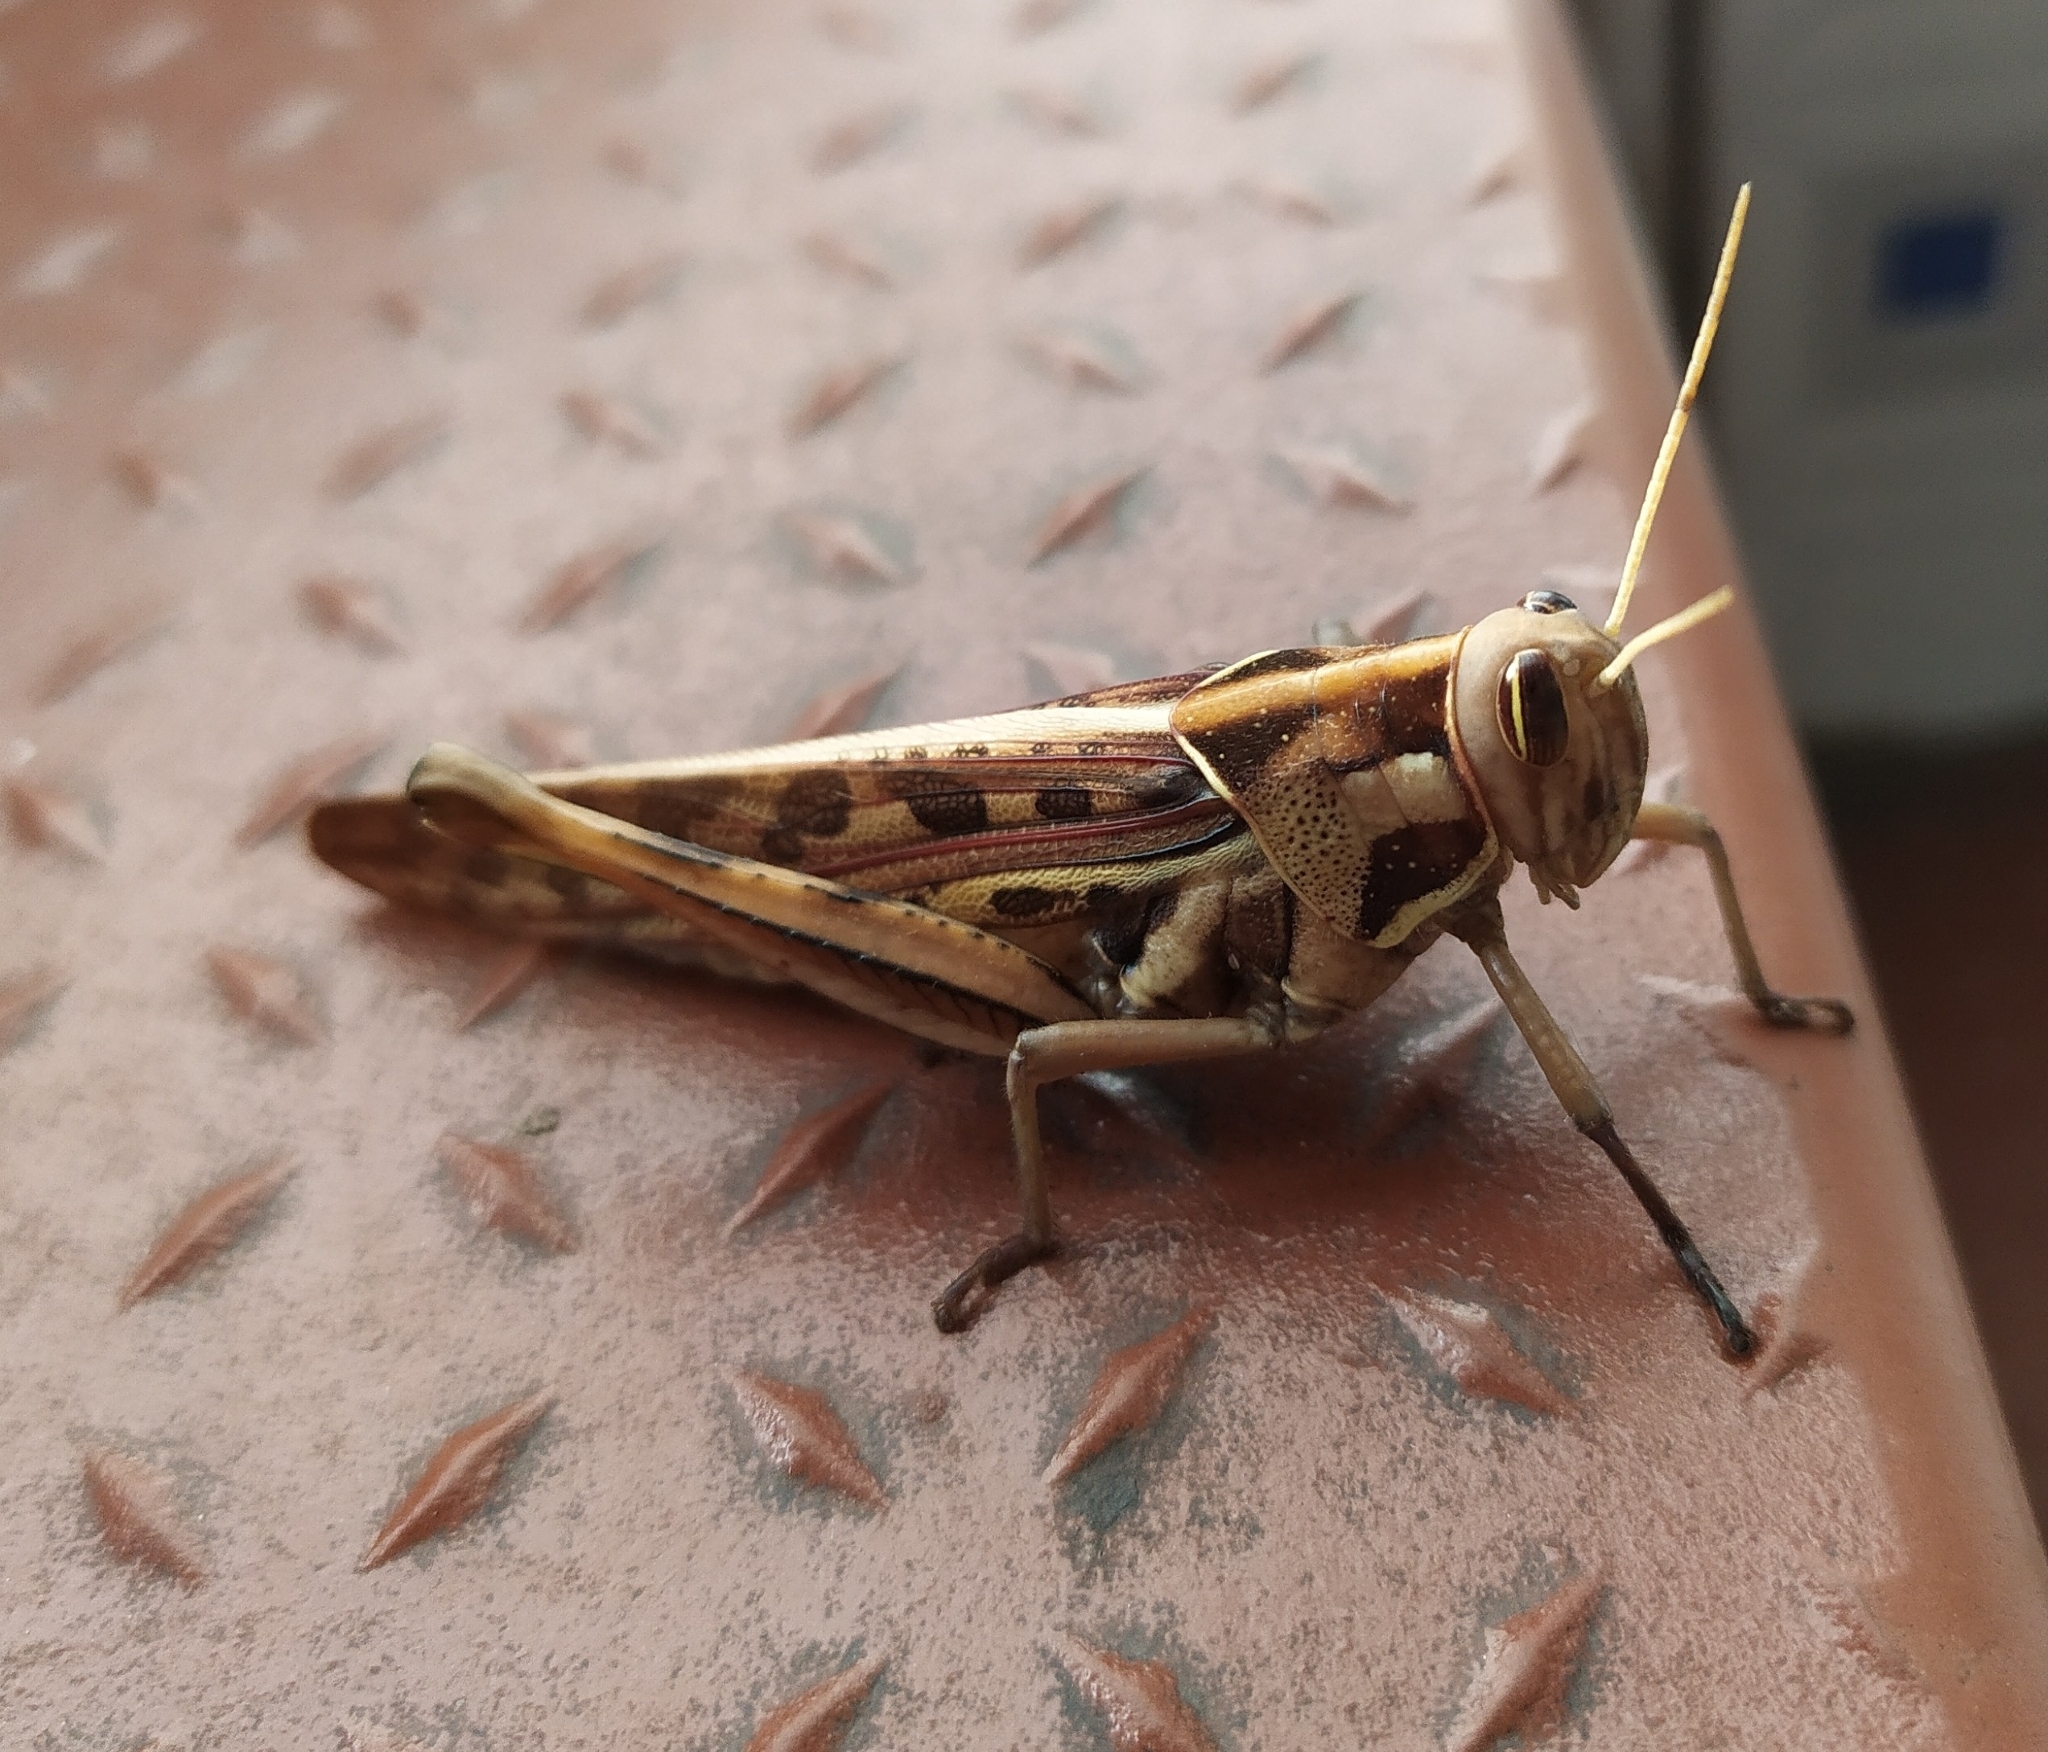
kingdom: Animalia
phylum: Arthropoda
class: Insecta
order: Orthoptera
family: Acrididae
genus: Cyrtacanthacris
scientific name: Cyrtacanthacris tatarica
